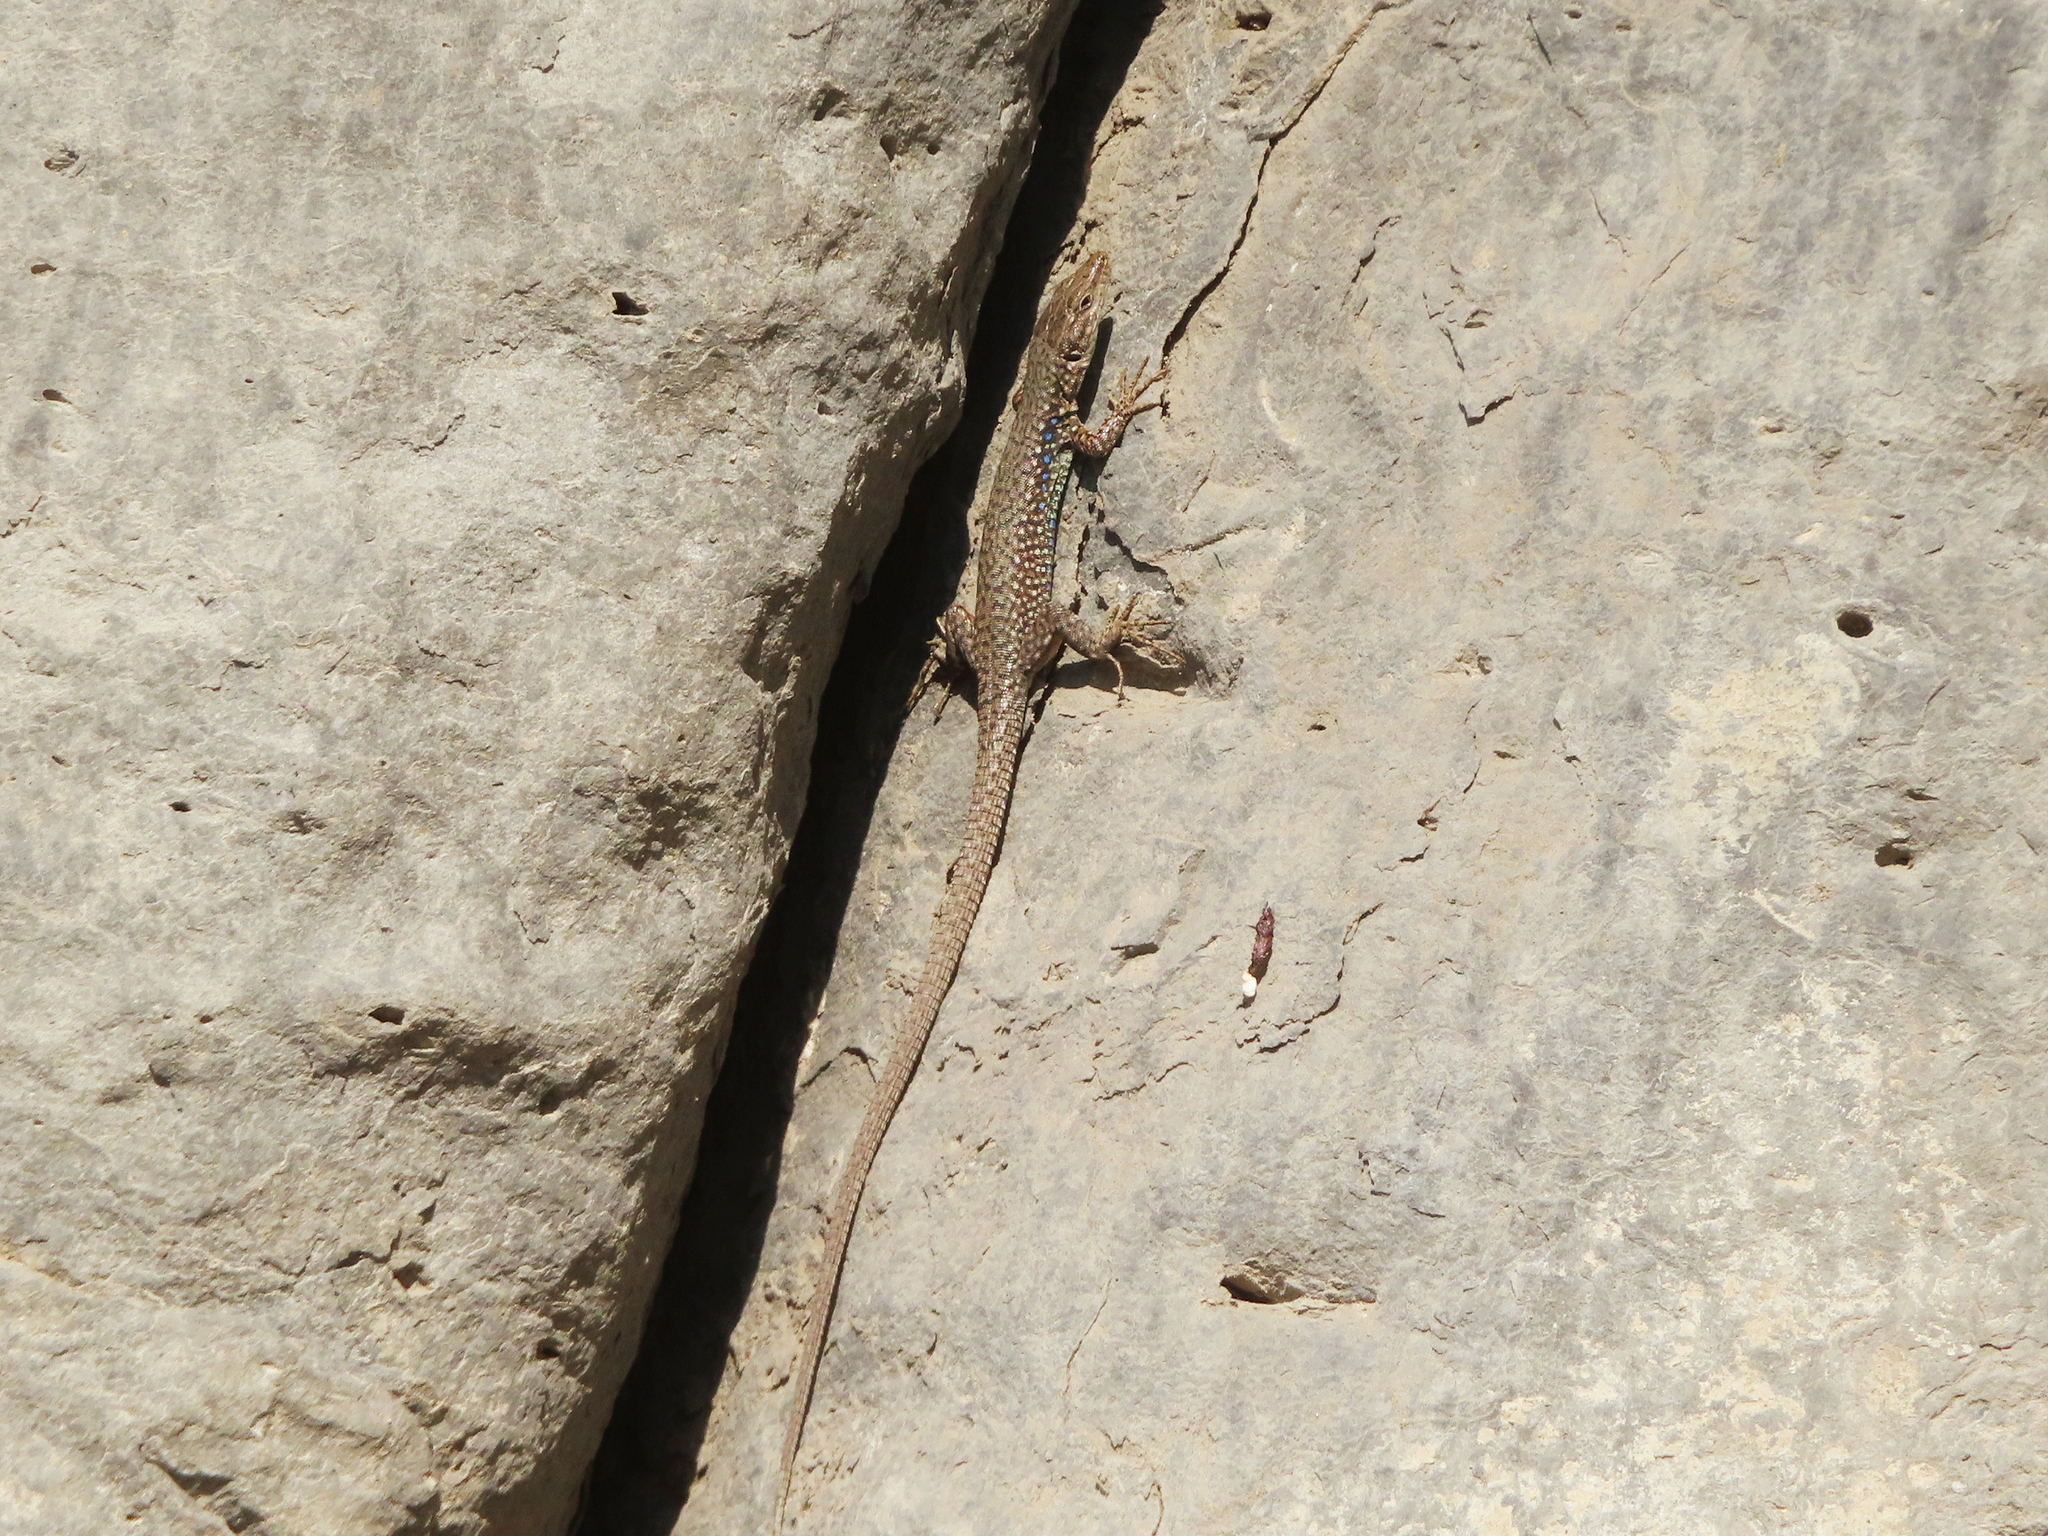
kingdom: Animalia
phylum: Chordata
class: Squamata
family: Lacertidae
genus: Darevskia
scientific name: Darevskia
